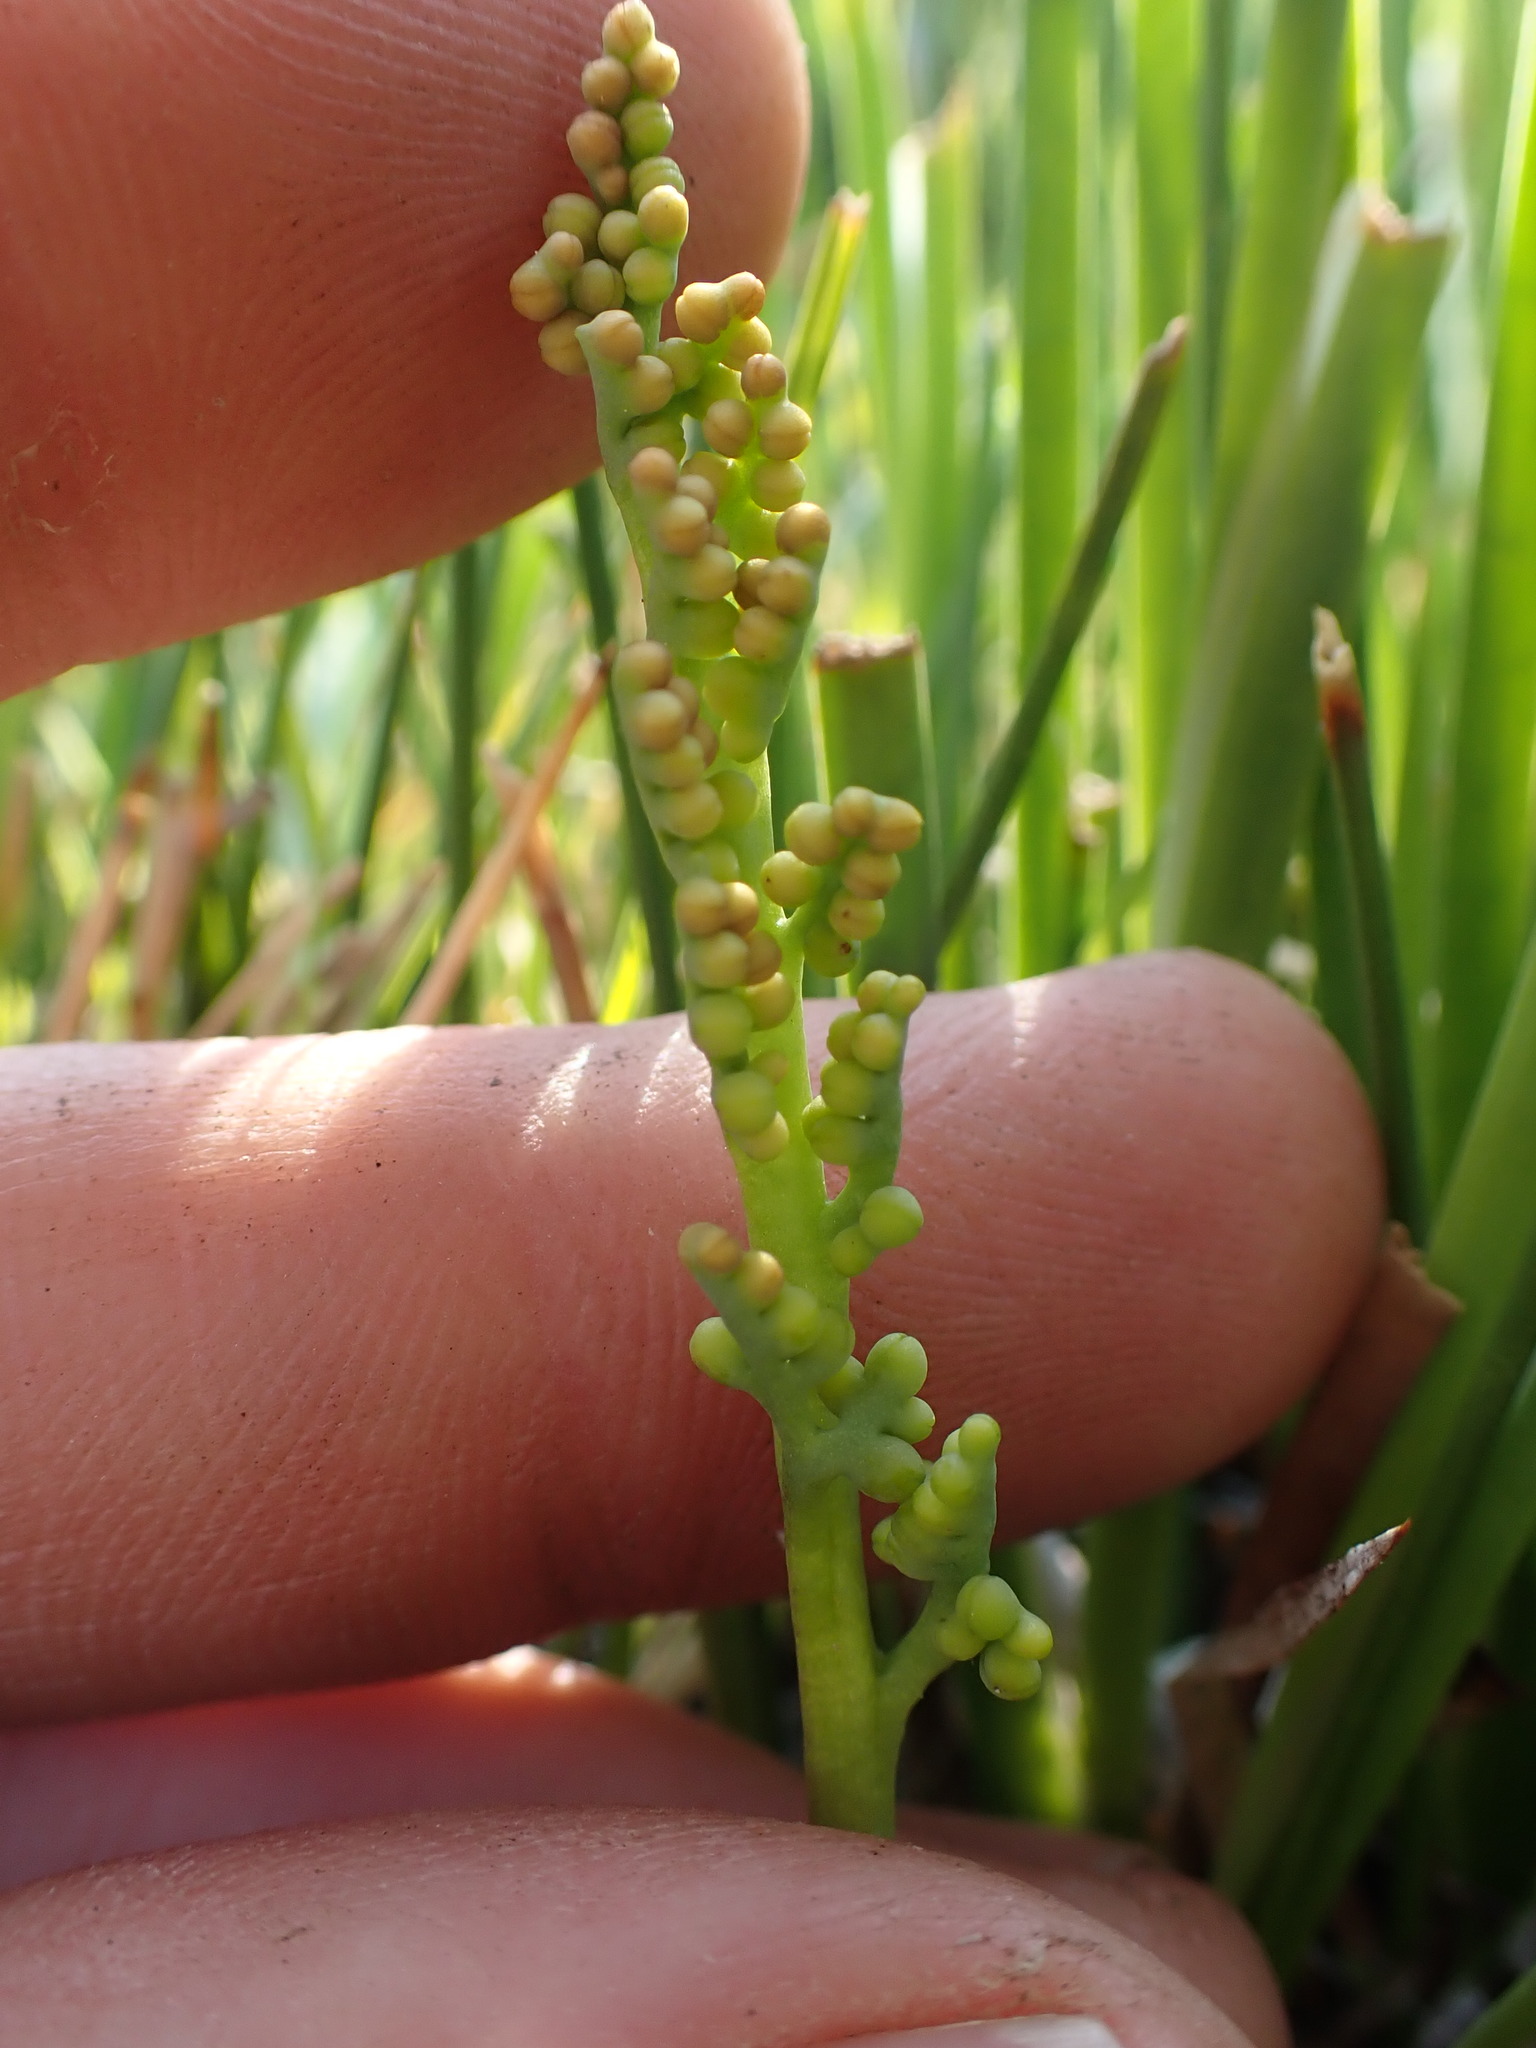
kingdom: Plantae
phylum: Tracheophyta
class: Polypodiopsida
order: Ophioglossales
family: Ophioglossaceae
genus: Botrychium
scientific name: Botrychium simplex
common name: Least moonwort
